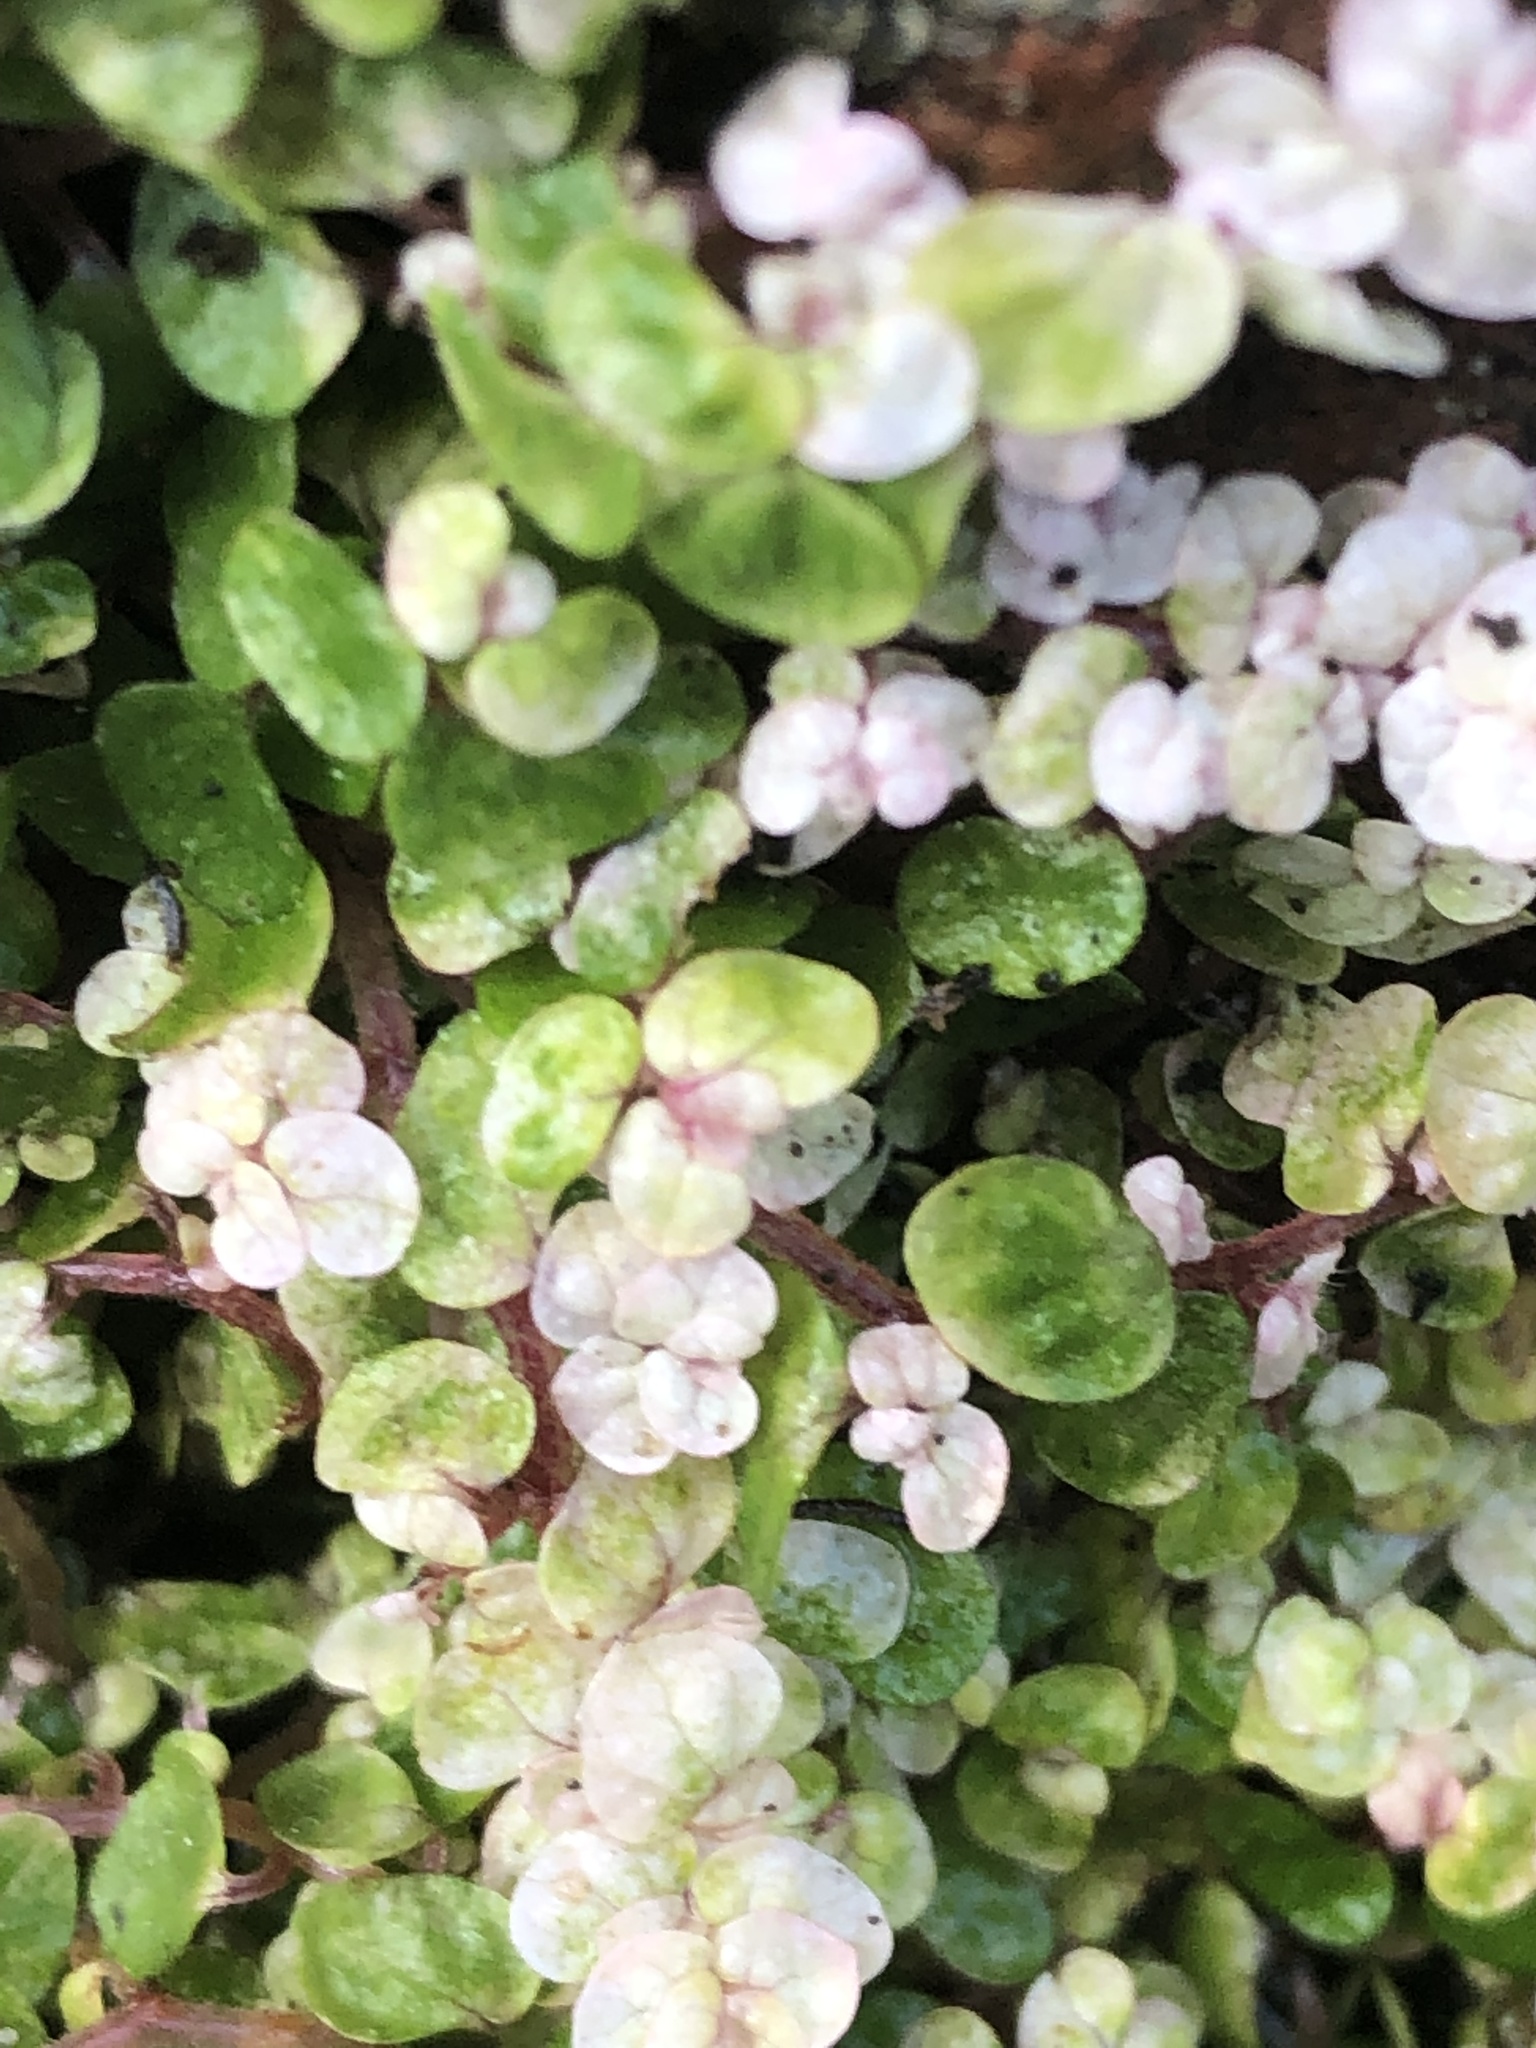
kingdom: Plantae
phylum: Tracheophyta
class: Magnoliopsida
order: Rosales
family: Urticaceae
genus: Soleirolia
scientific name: Soleirolia soleirolii
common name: Mind-your-own-business
